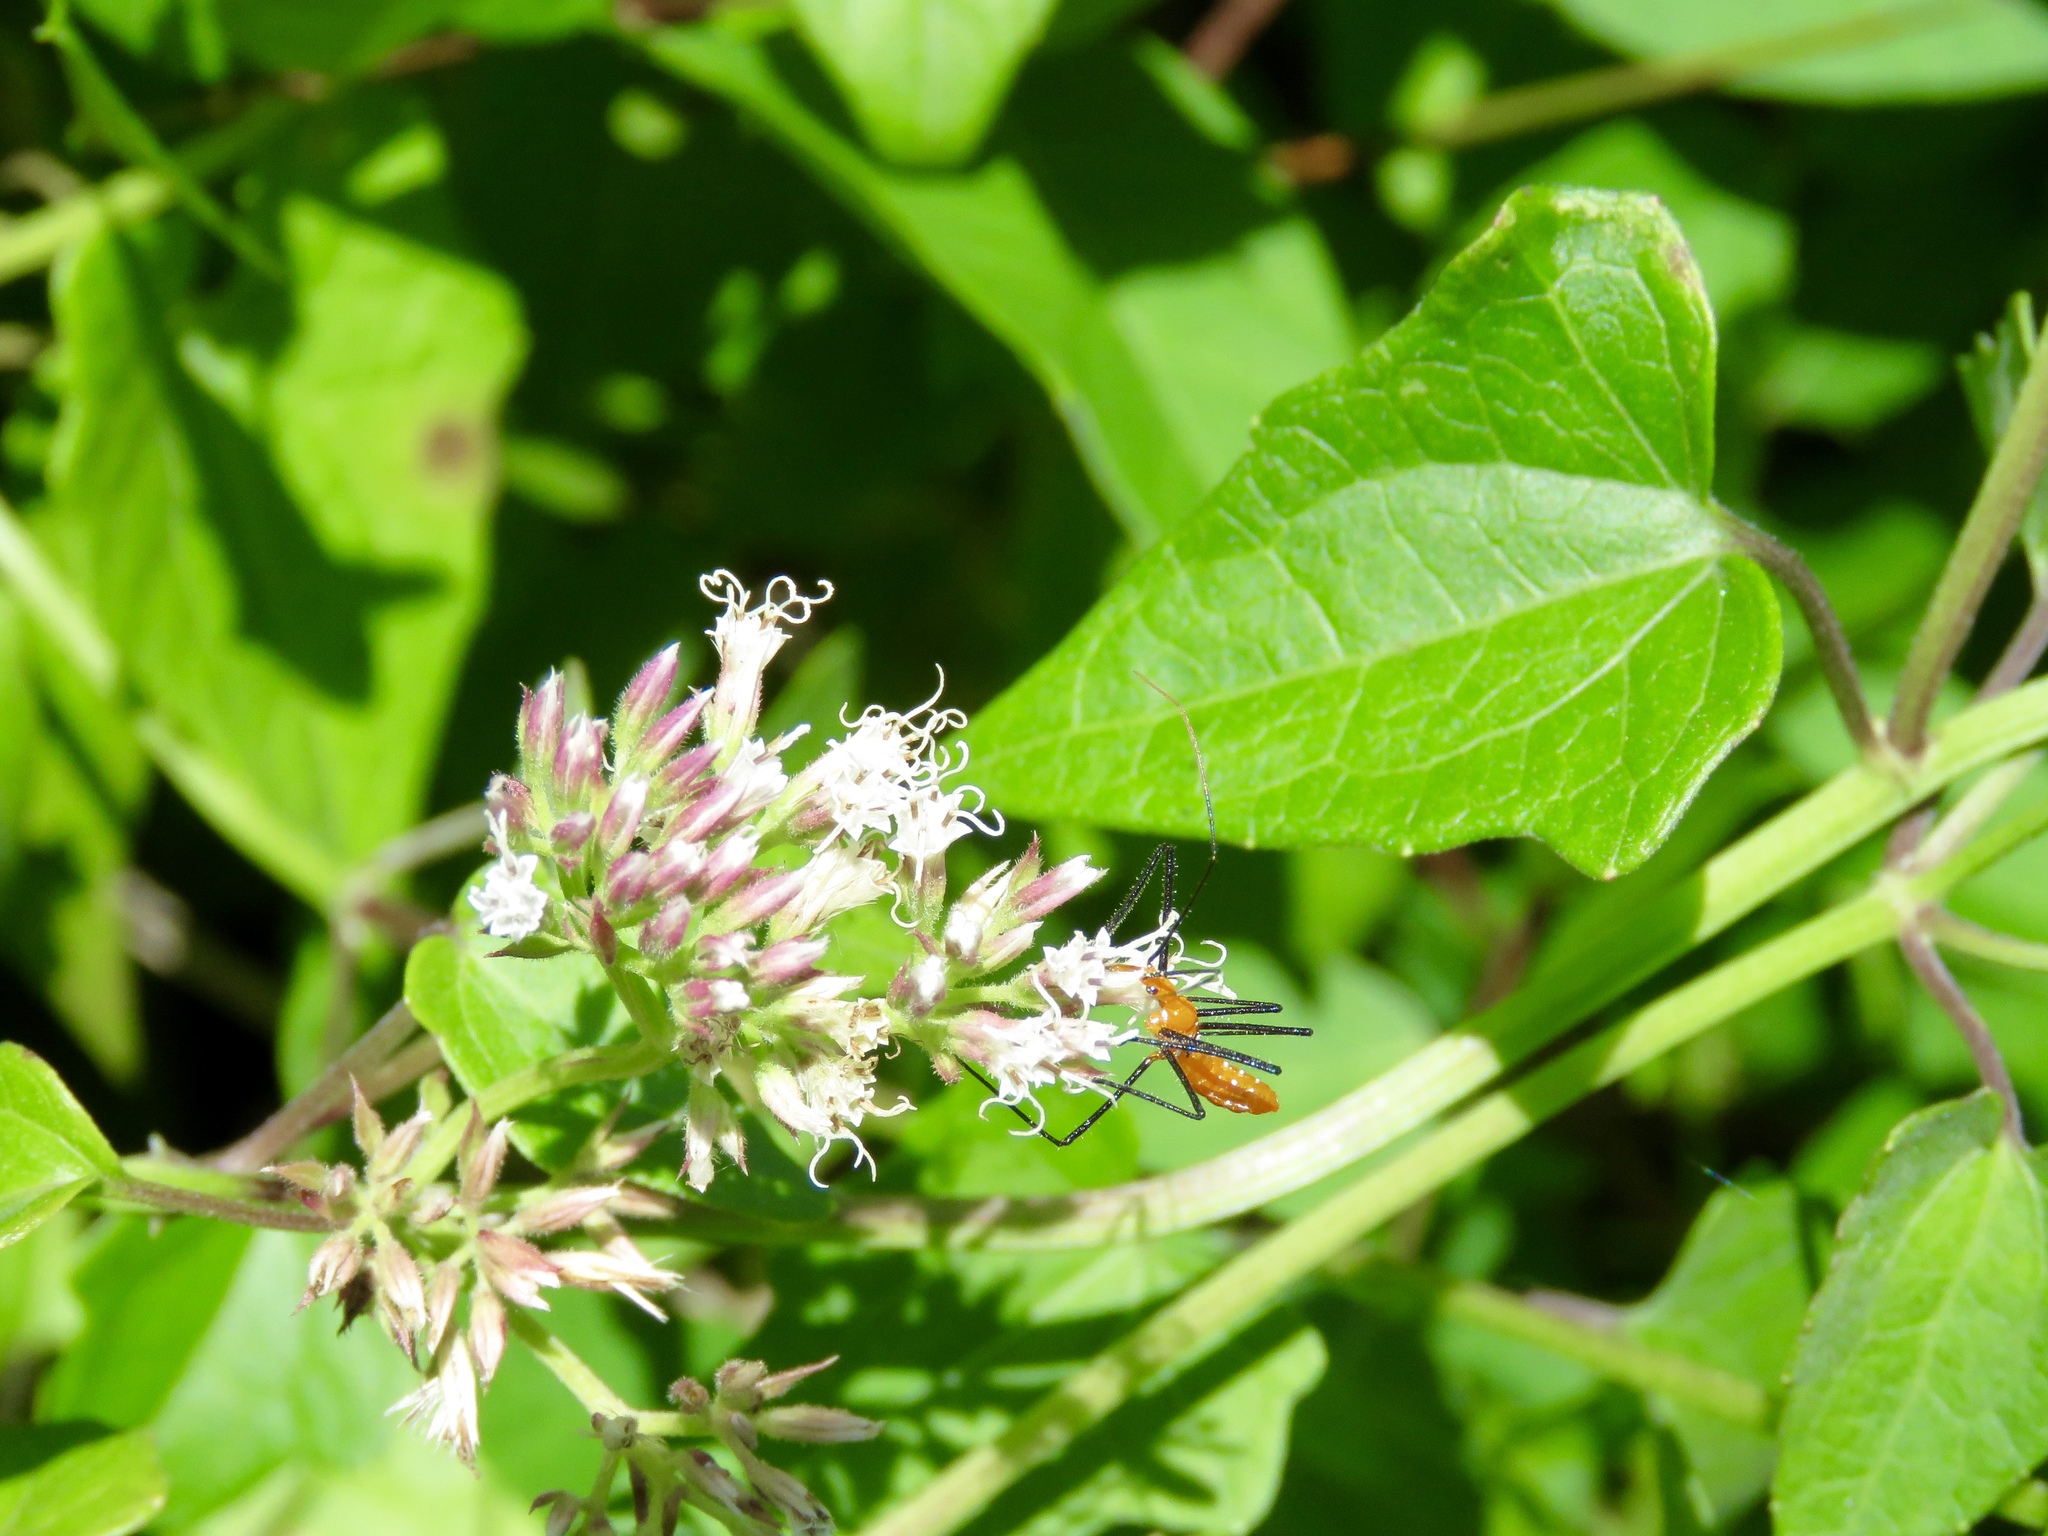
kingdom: Plantae
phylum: Tracheophyta
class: Magnoliopsida
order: Asterales
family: Asteraceae
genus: Mikania
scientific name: Mikania scandens
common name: Climbing hempvine
